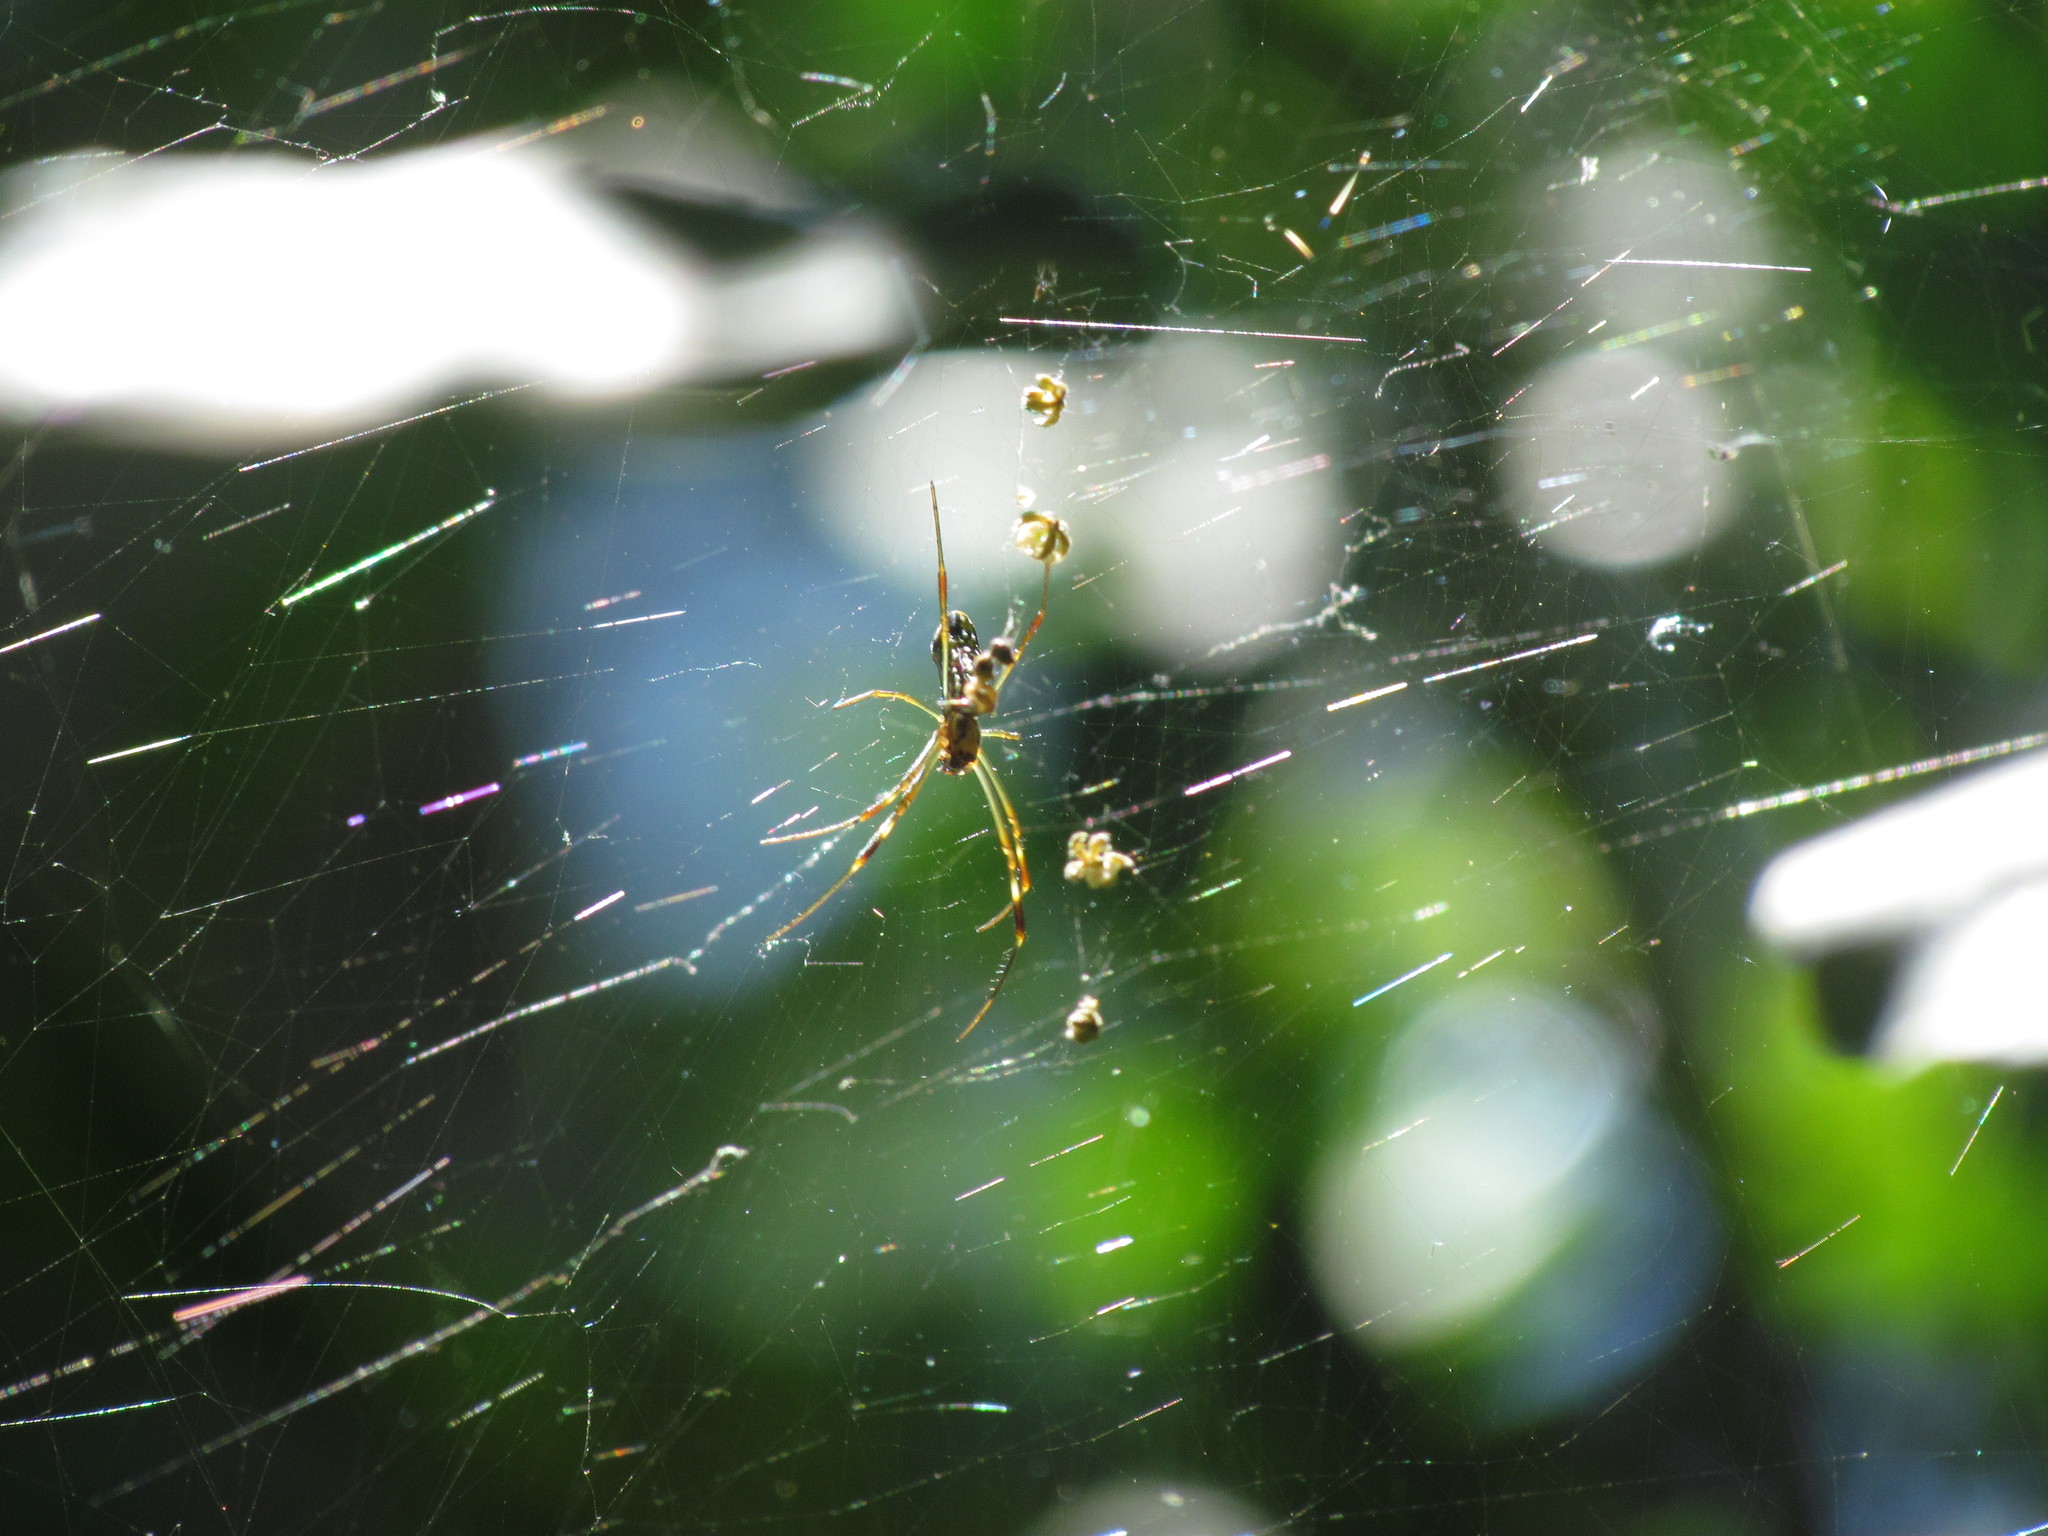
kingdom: Animalia
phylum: Arthropoda
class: Arachnida
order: Araneae
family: Araneidae
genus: Trichonephila
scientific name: Trichonephila clavipes
